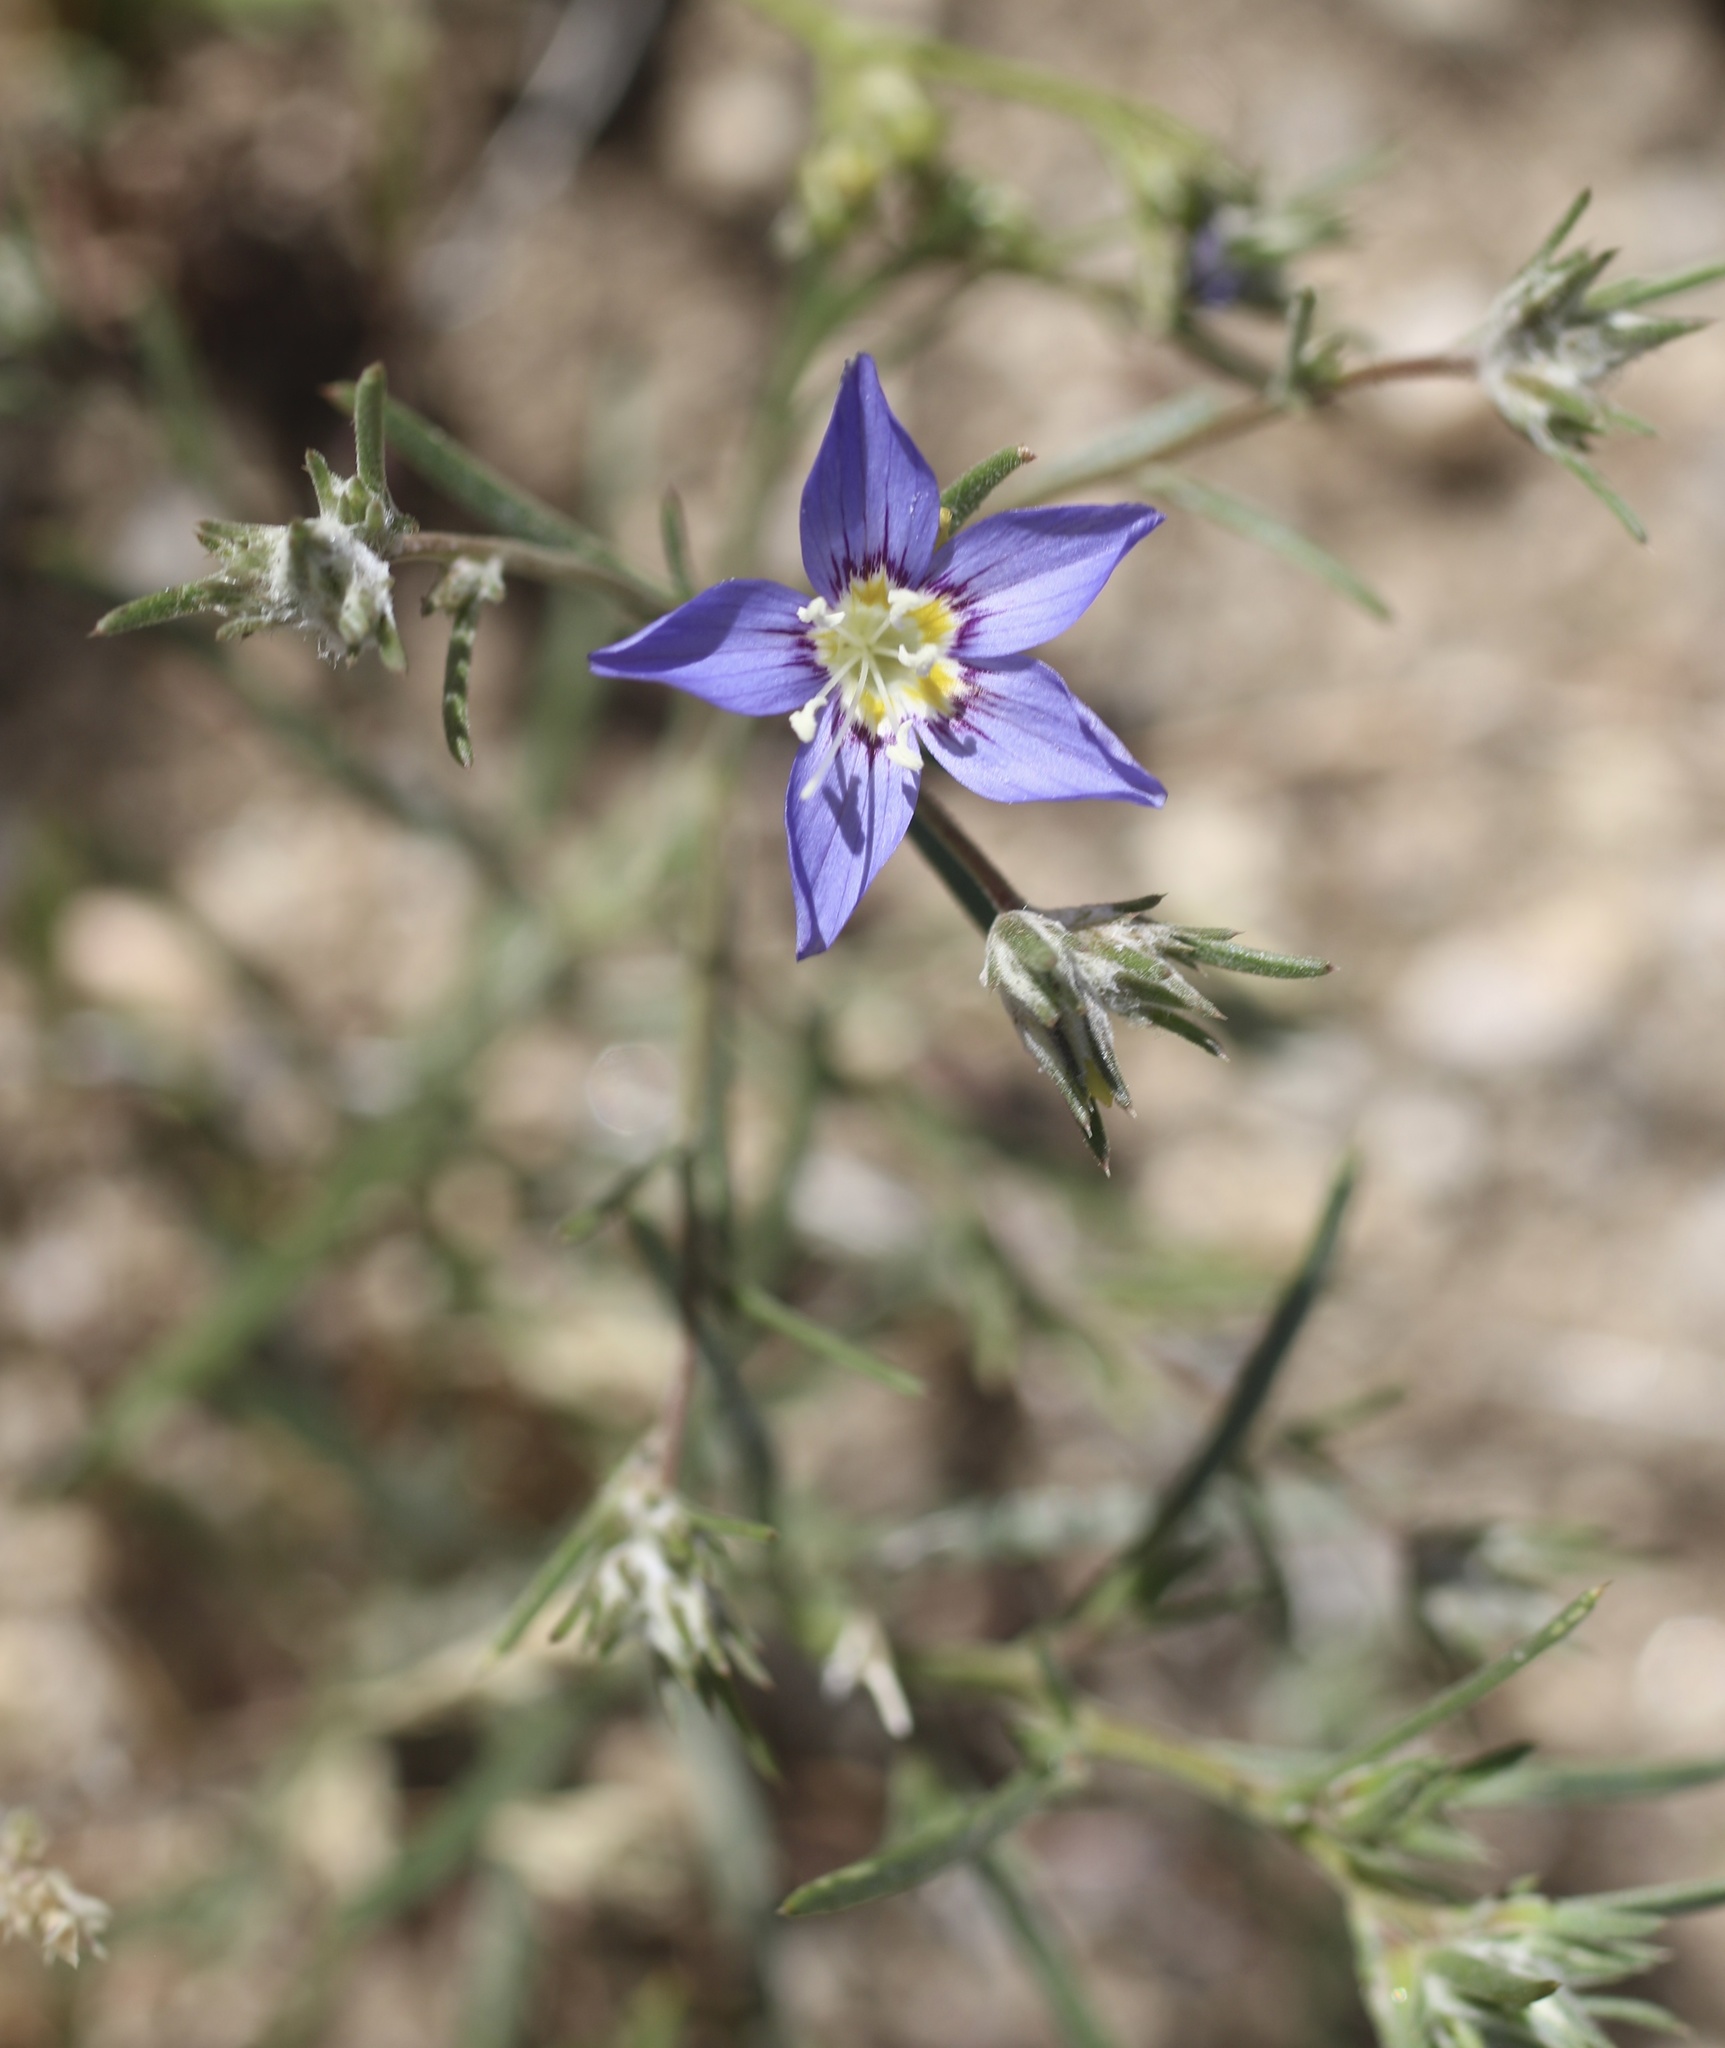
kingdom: Plantae
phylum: Tracheophyta
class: Magnoliopsida
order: Ericales
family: Polemoniaceae
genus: Eriastrum
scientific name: Eriastrum sapphirinum
